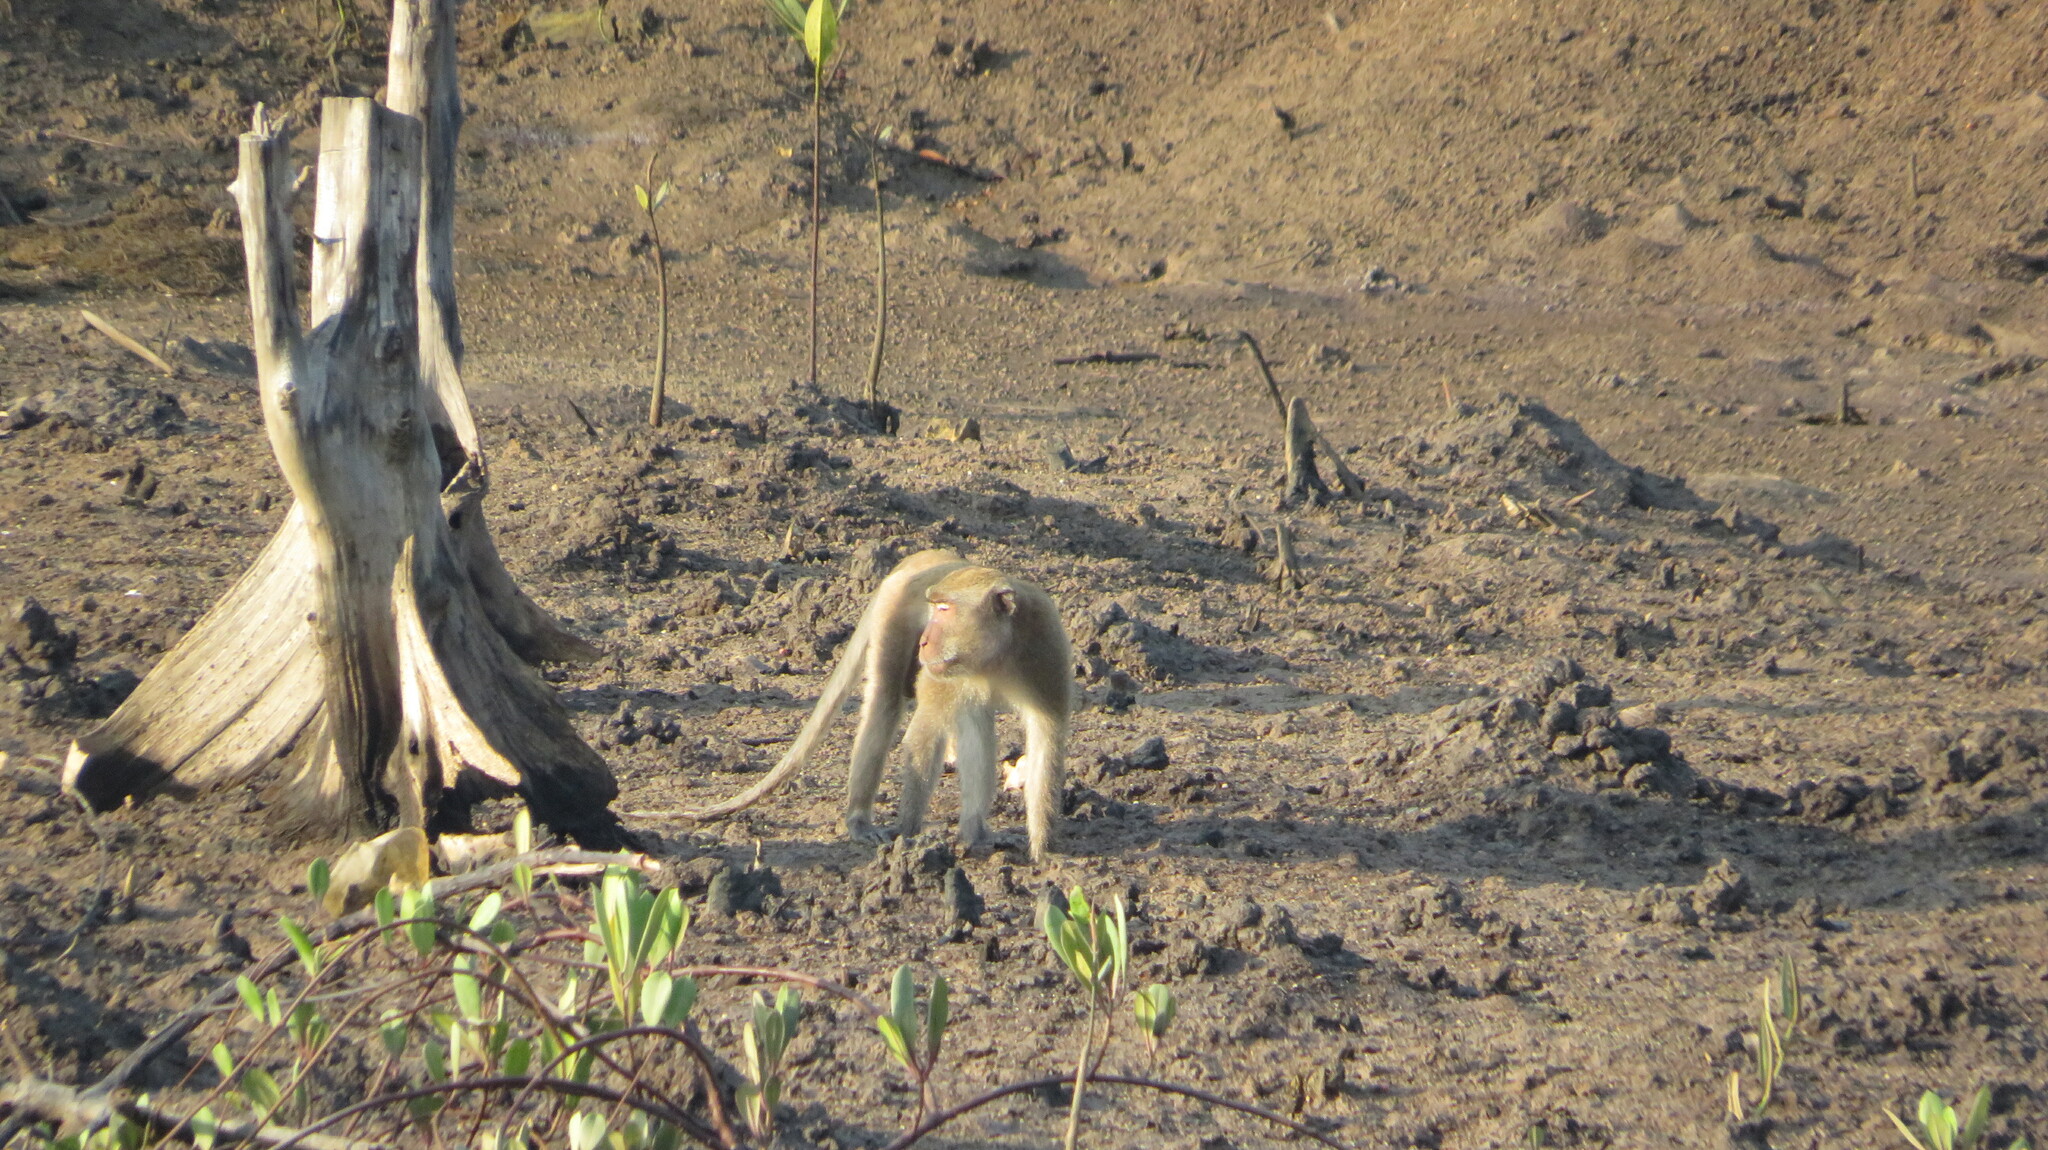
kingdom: Animalia
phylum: Chordata
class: Mammalia
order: Primates
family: Cercopithecidae
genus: Macaca
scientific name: Macaca fascicularis
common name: Crab-eating macaque
